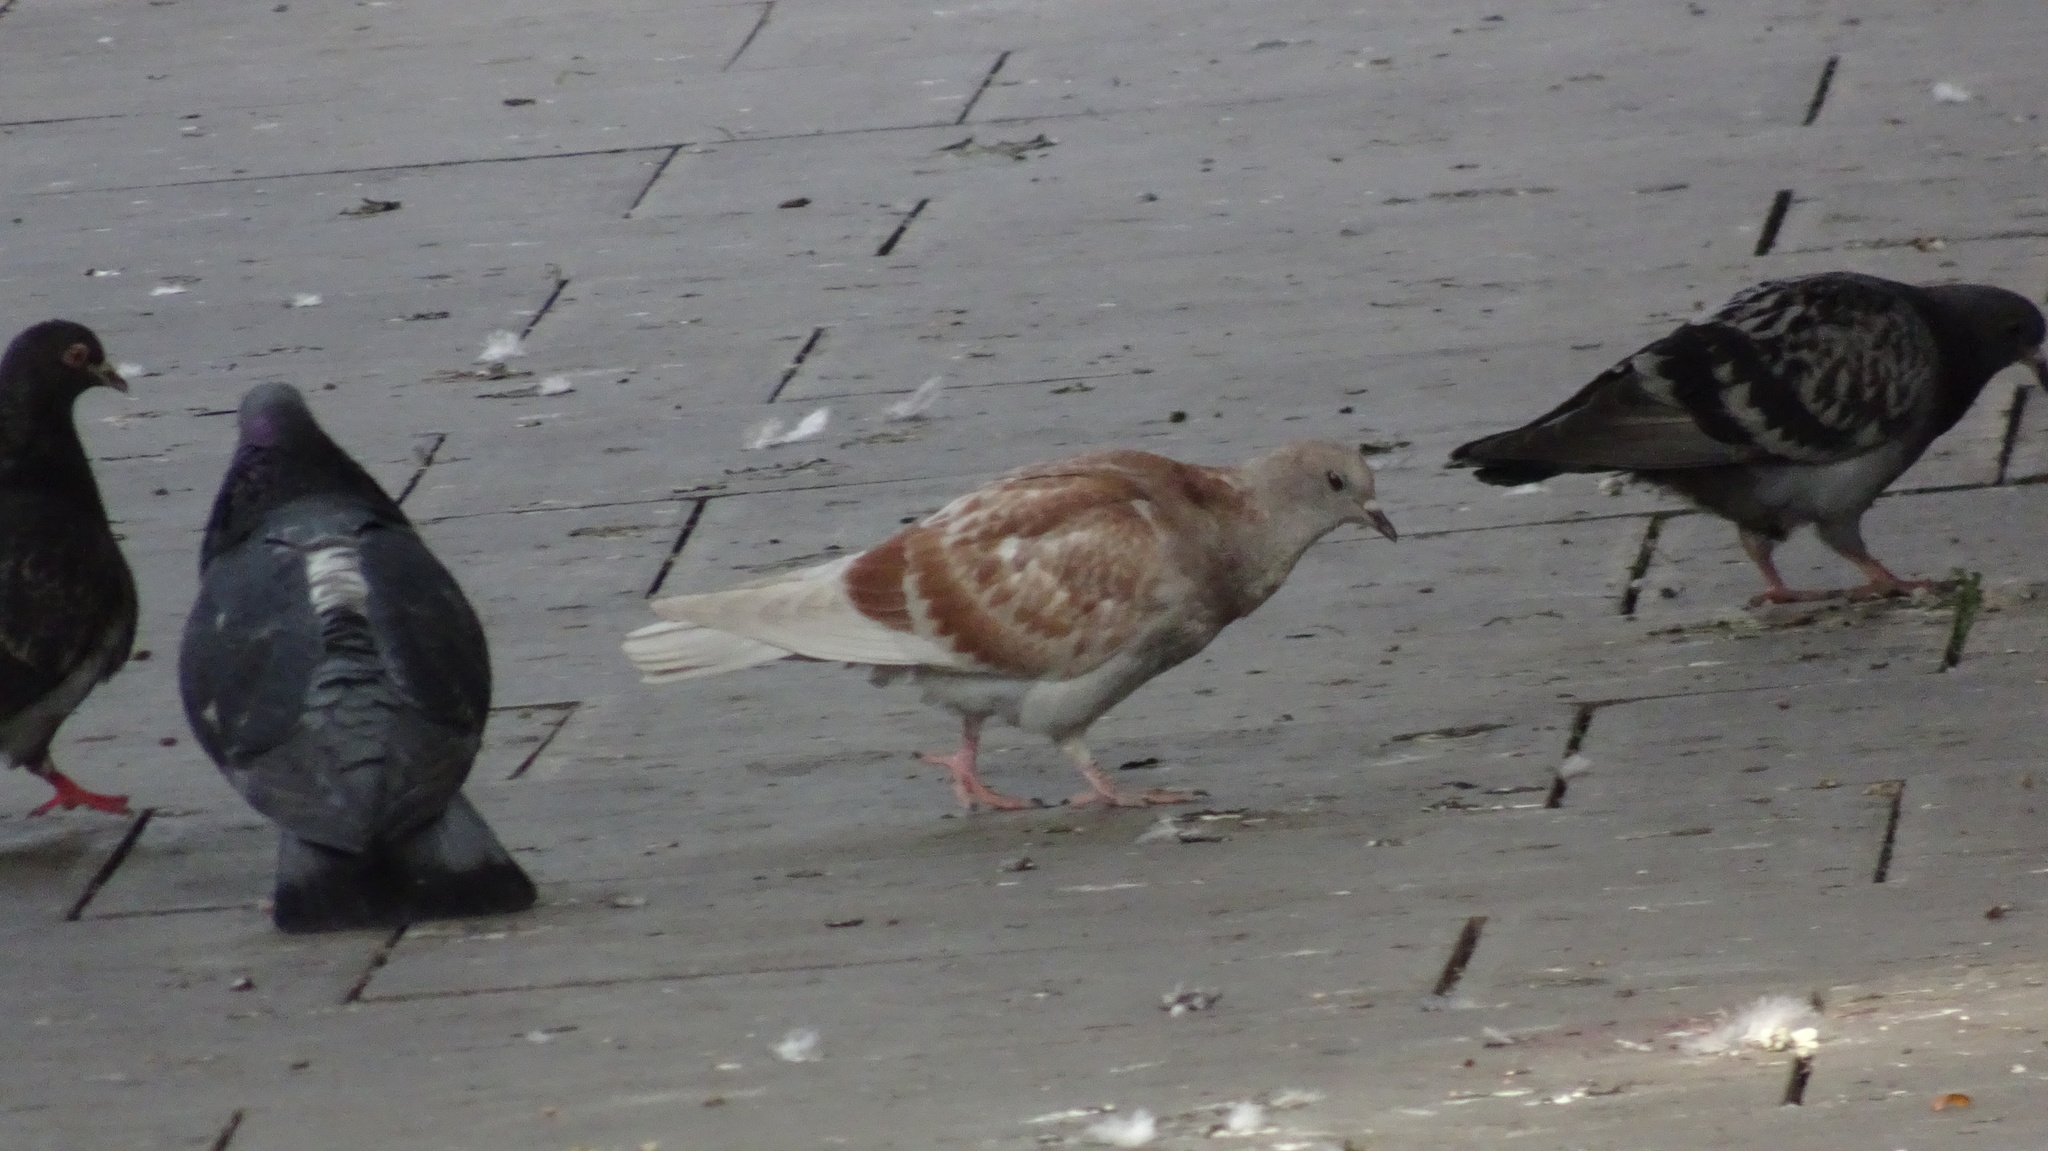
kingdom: Animalia
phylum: Chordata
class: Aves
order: Columbiformes
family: Columbidae
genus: Columba
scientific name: Columba livia
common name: Rock pigeon
